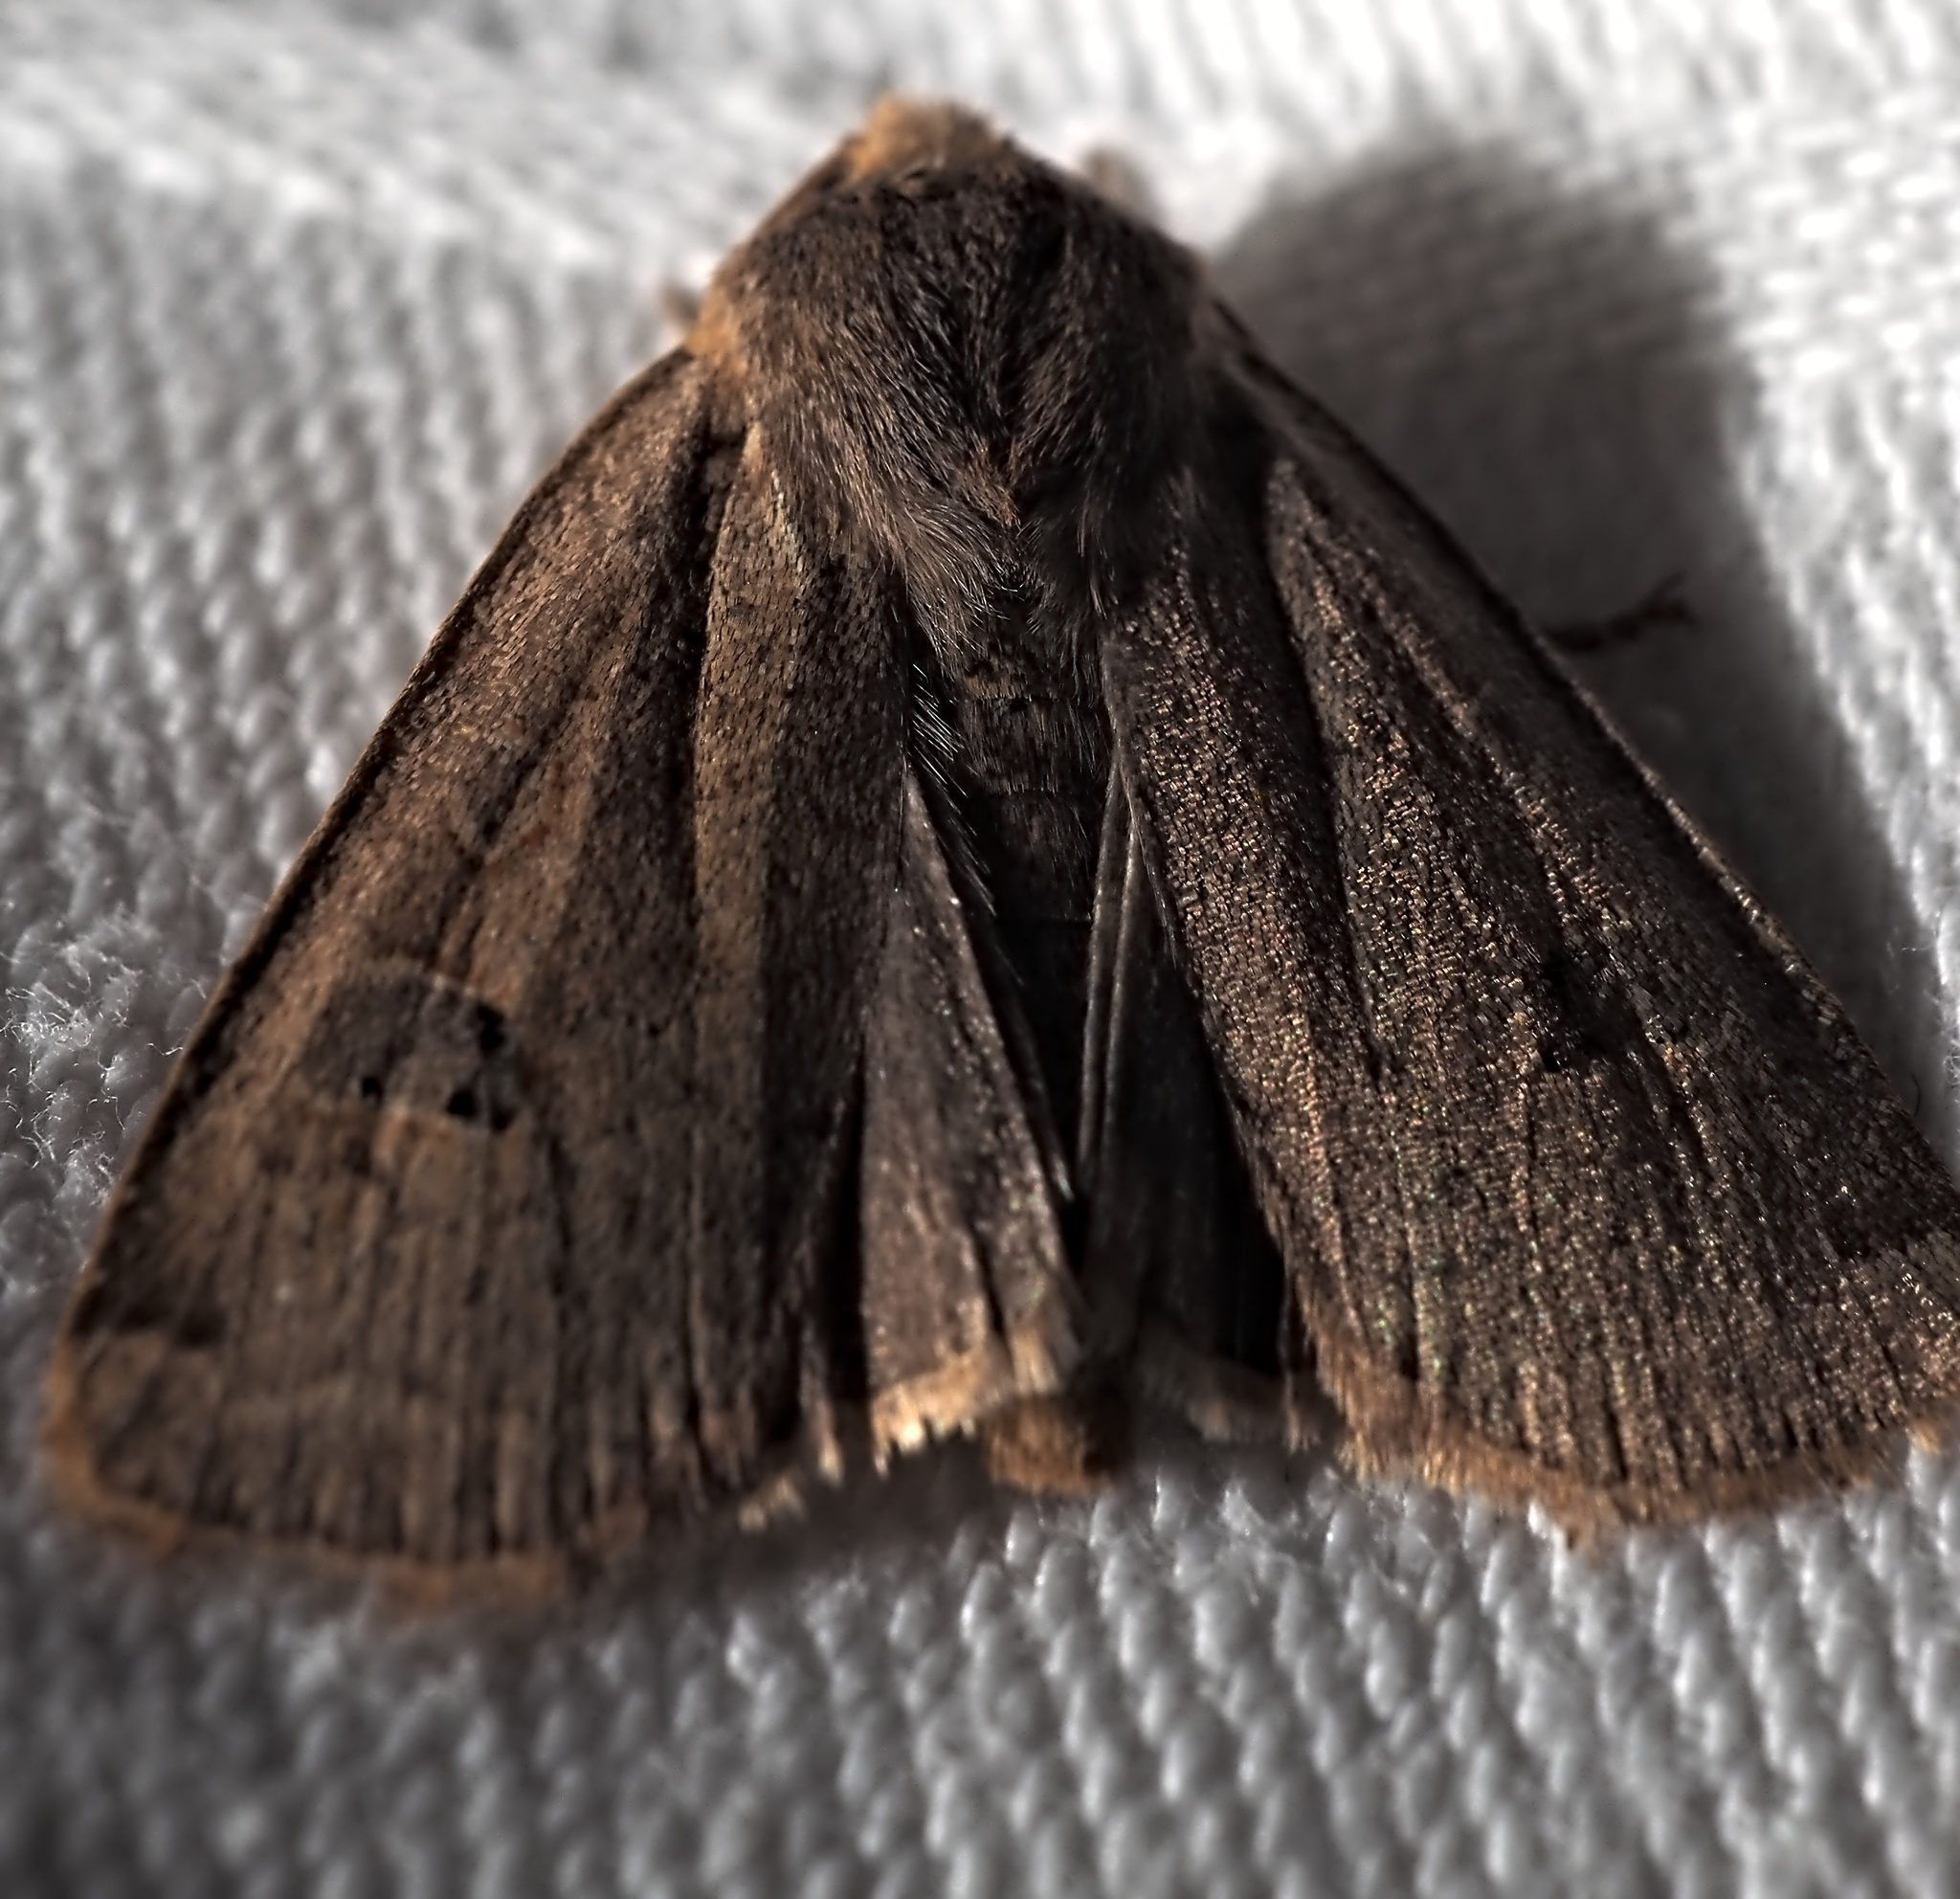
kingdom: Animalia
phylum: Arthropoda
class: Insecta
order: Lepidoptera
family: Noctuidae
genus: Conistra
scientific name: Conistra erythrocephala
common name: Red-headed chestnut
